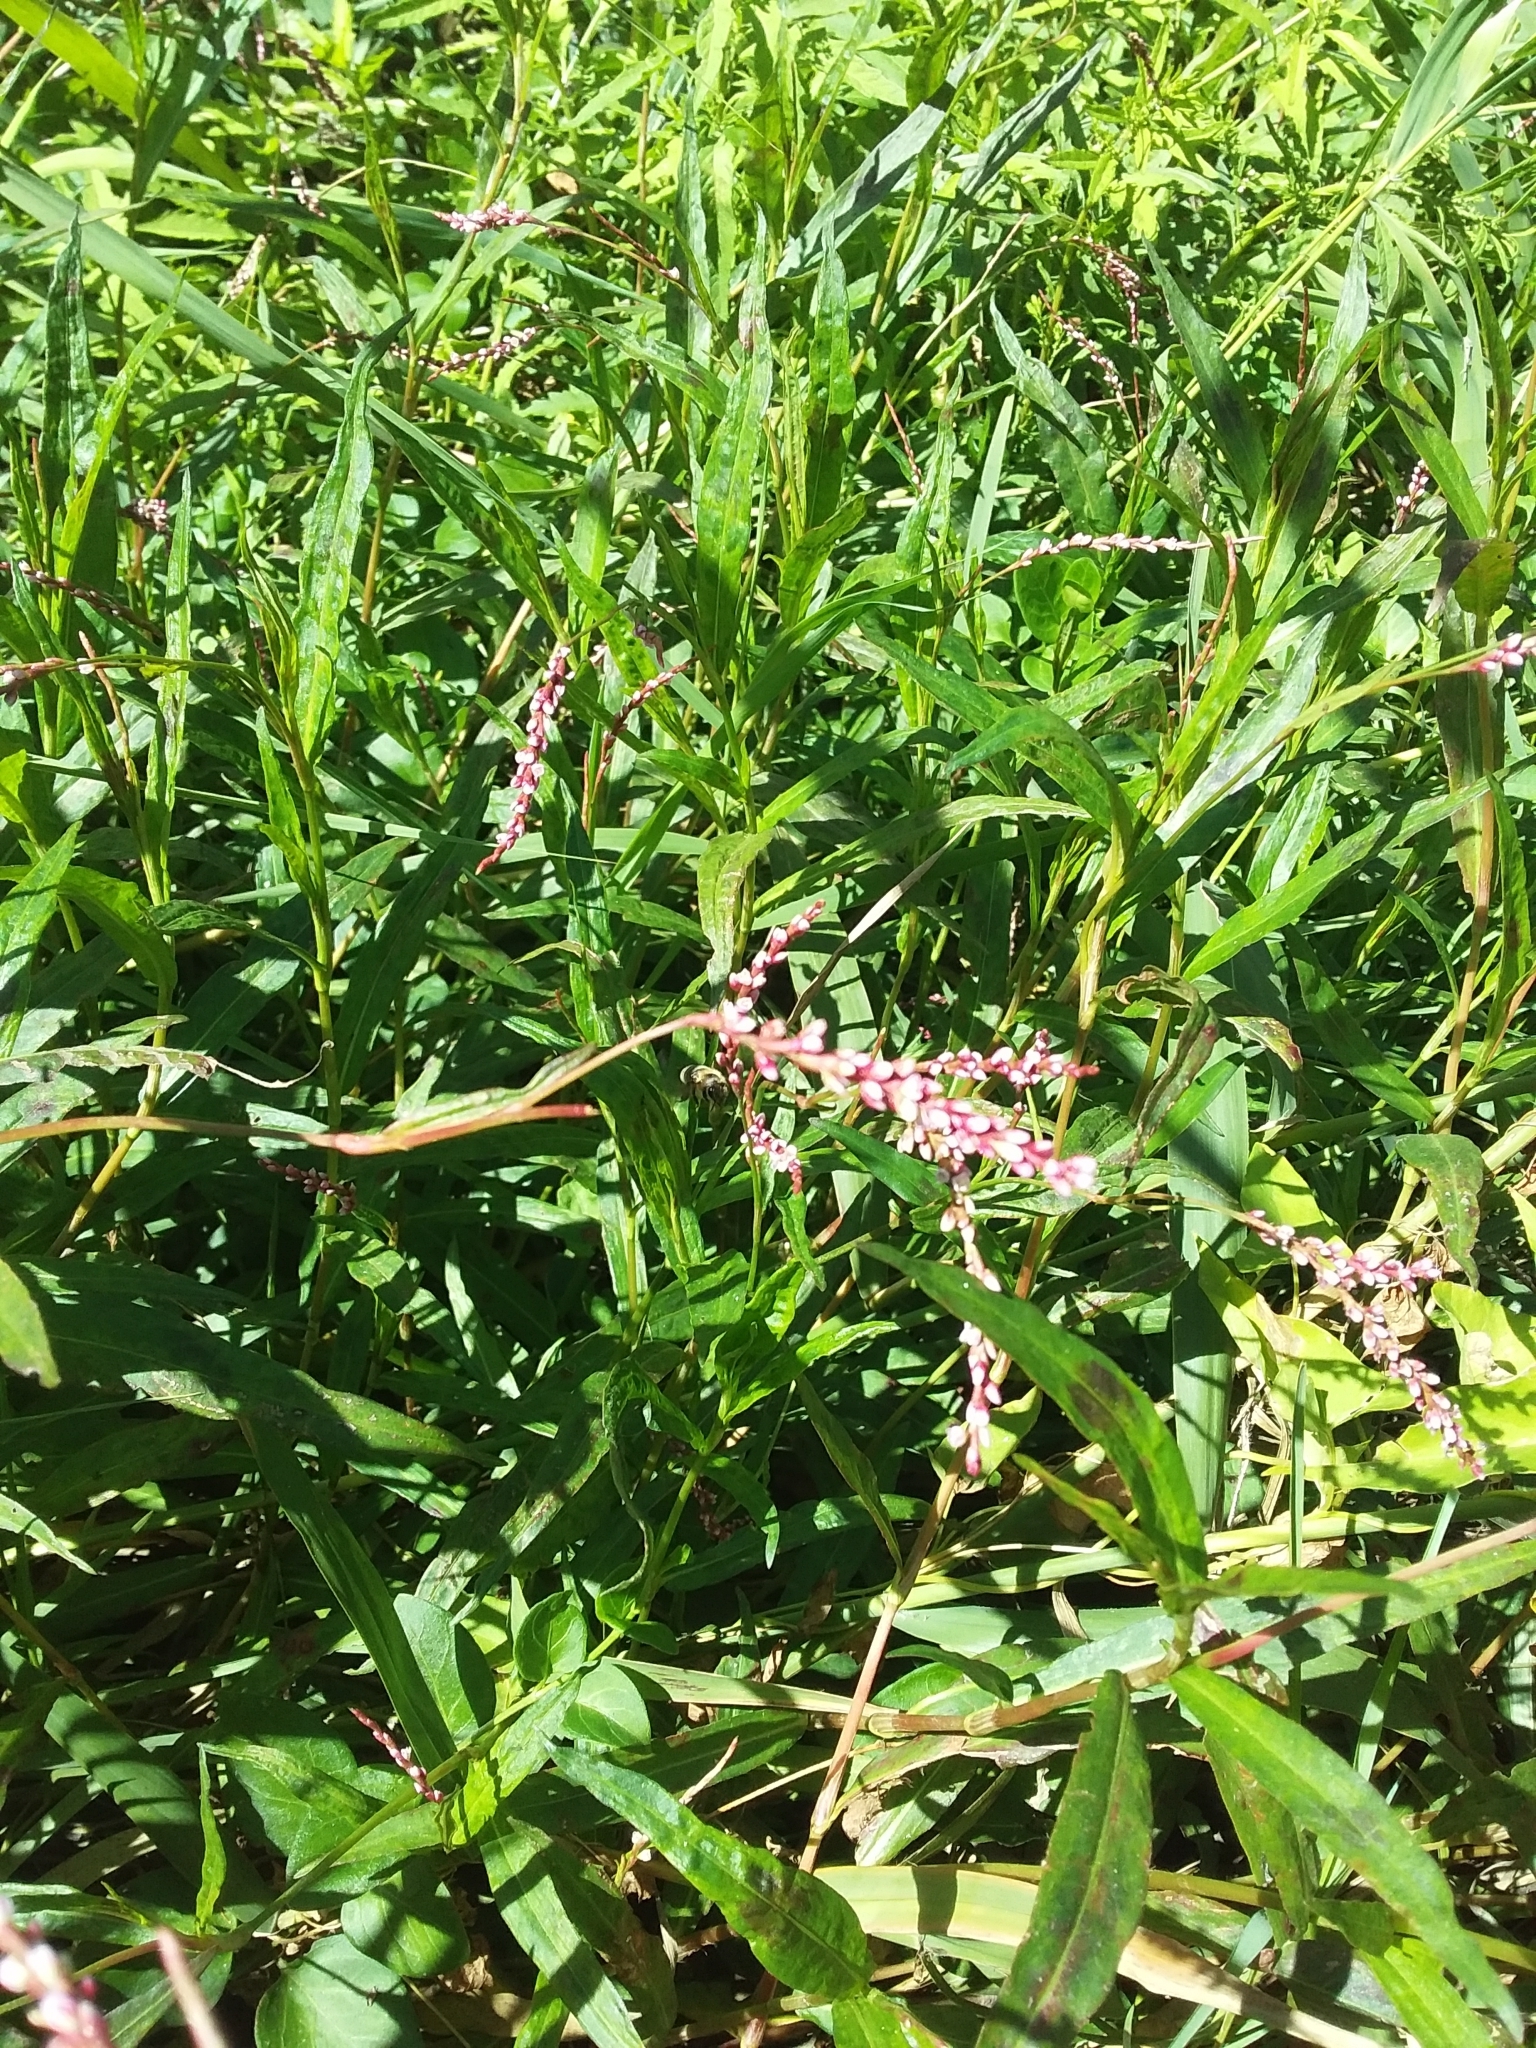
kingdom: Plantae
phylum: Tracheophyta
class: Magnoliopsida
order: Caryophyllales
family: Polygonaceae
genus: Persicaria
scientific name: Persicaria decipiens
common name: Willow-weed
